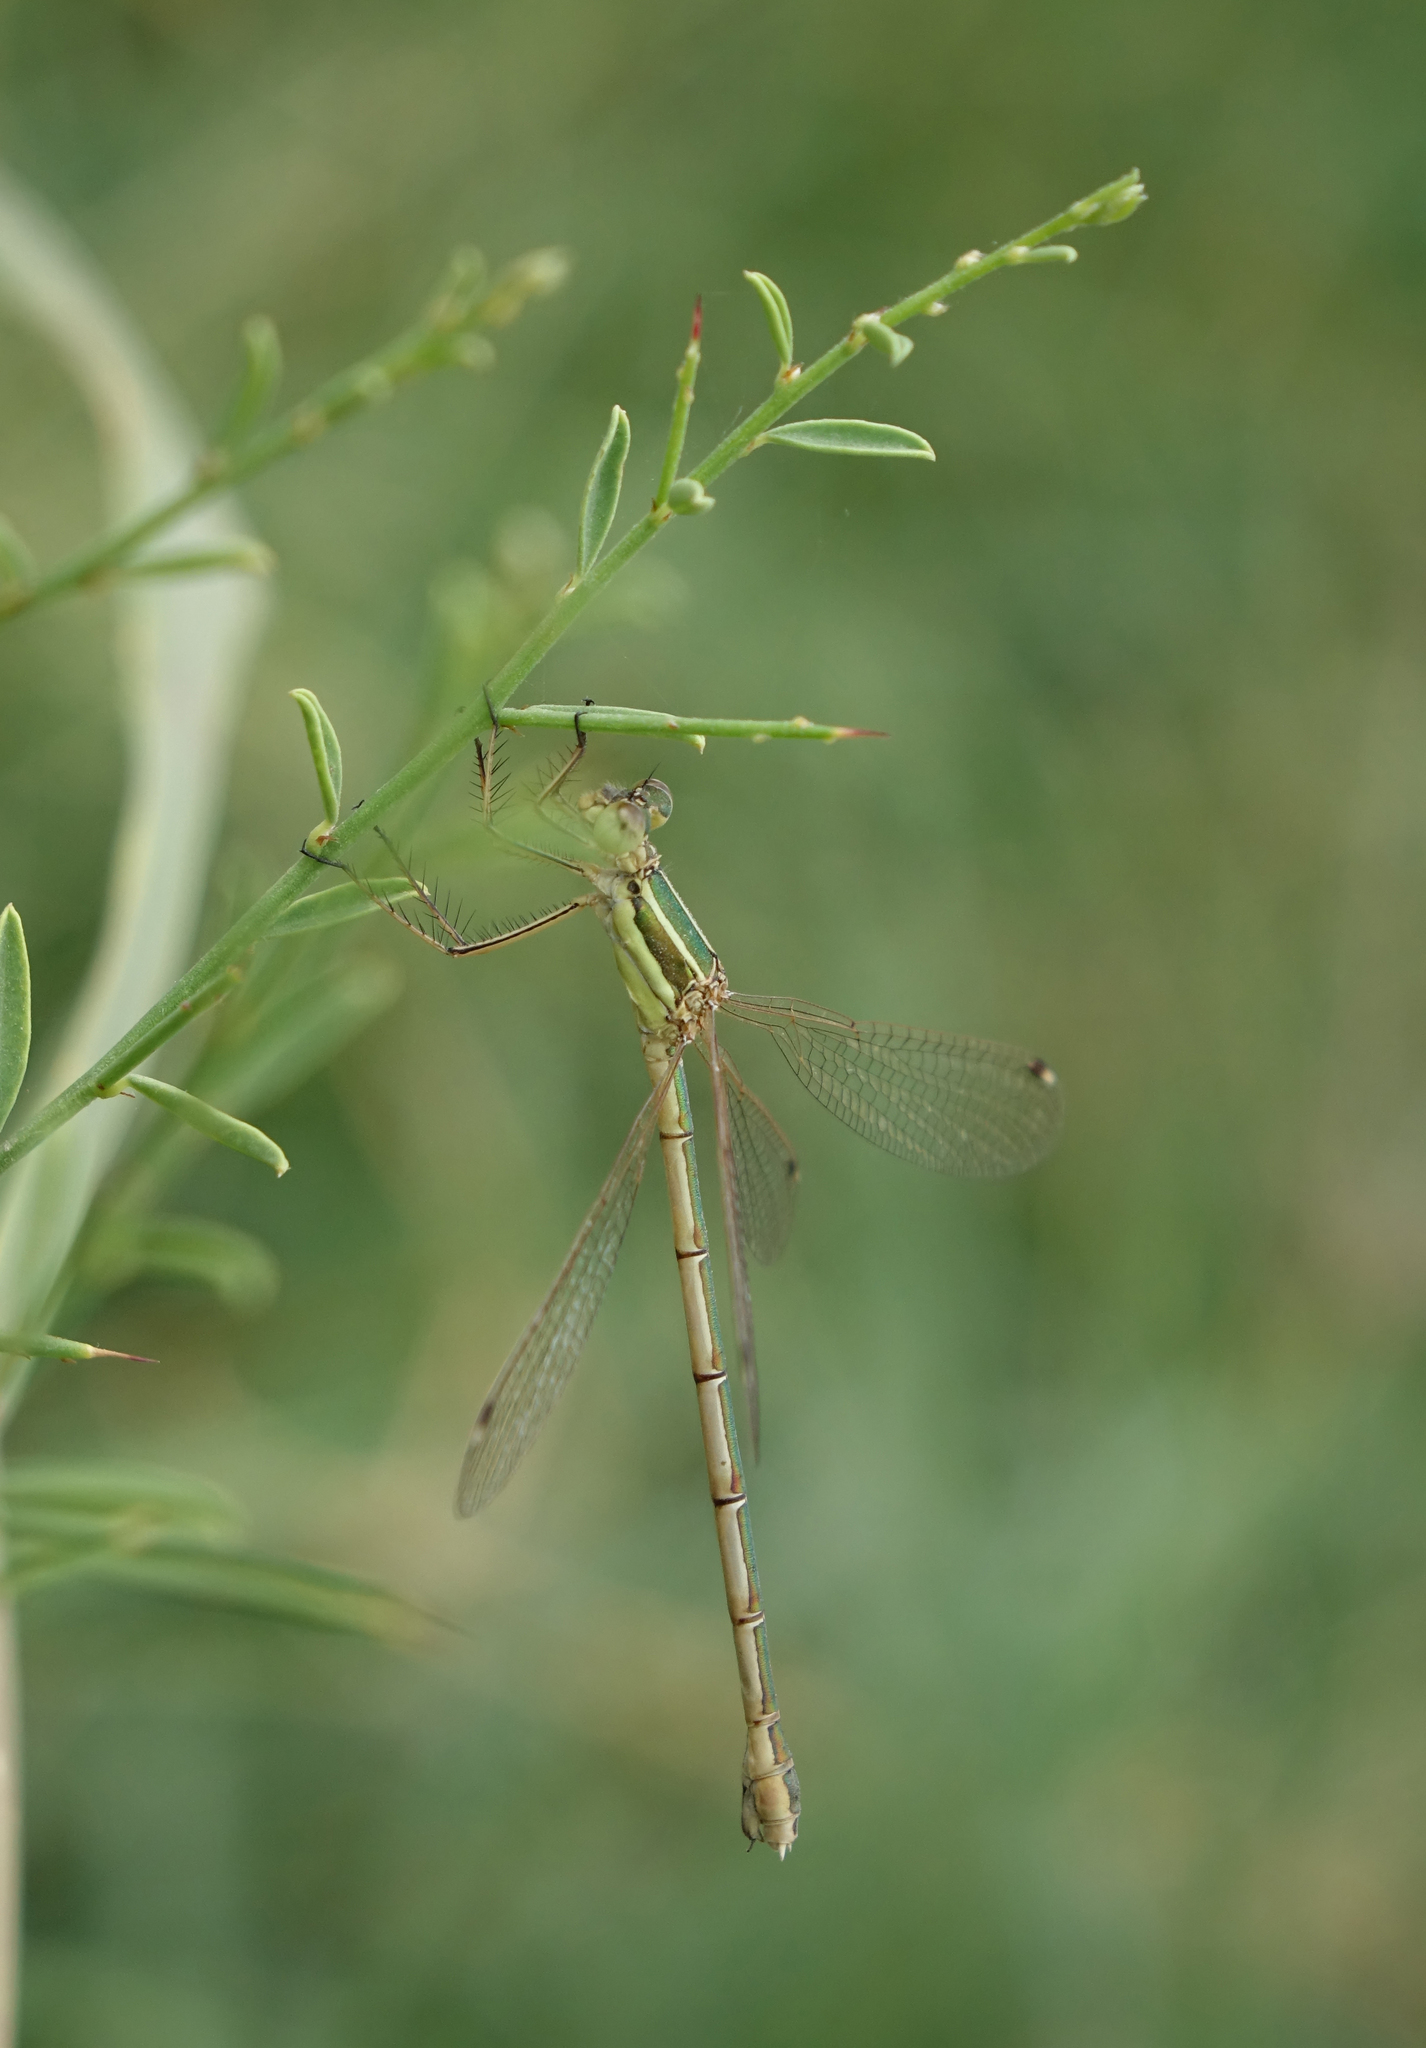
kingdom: Animalia
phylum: Arthropoda
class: Insecta
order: Odonata
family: Lestidae
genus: Lestes
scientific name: Lestes barbarus
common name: Migrant spreadwing
